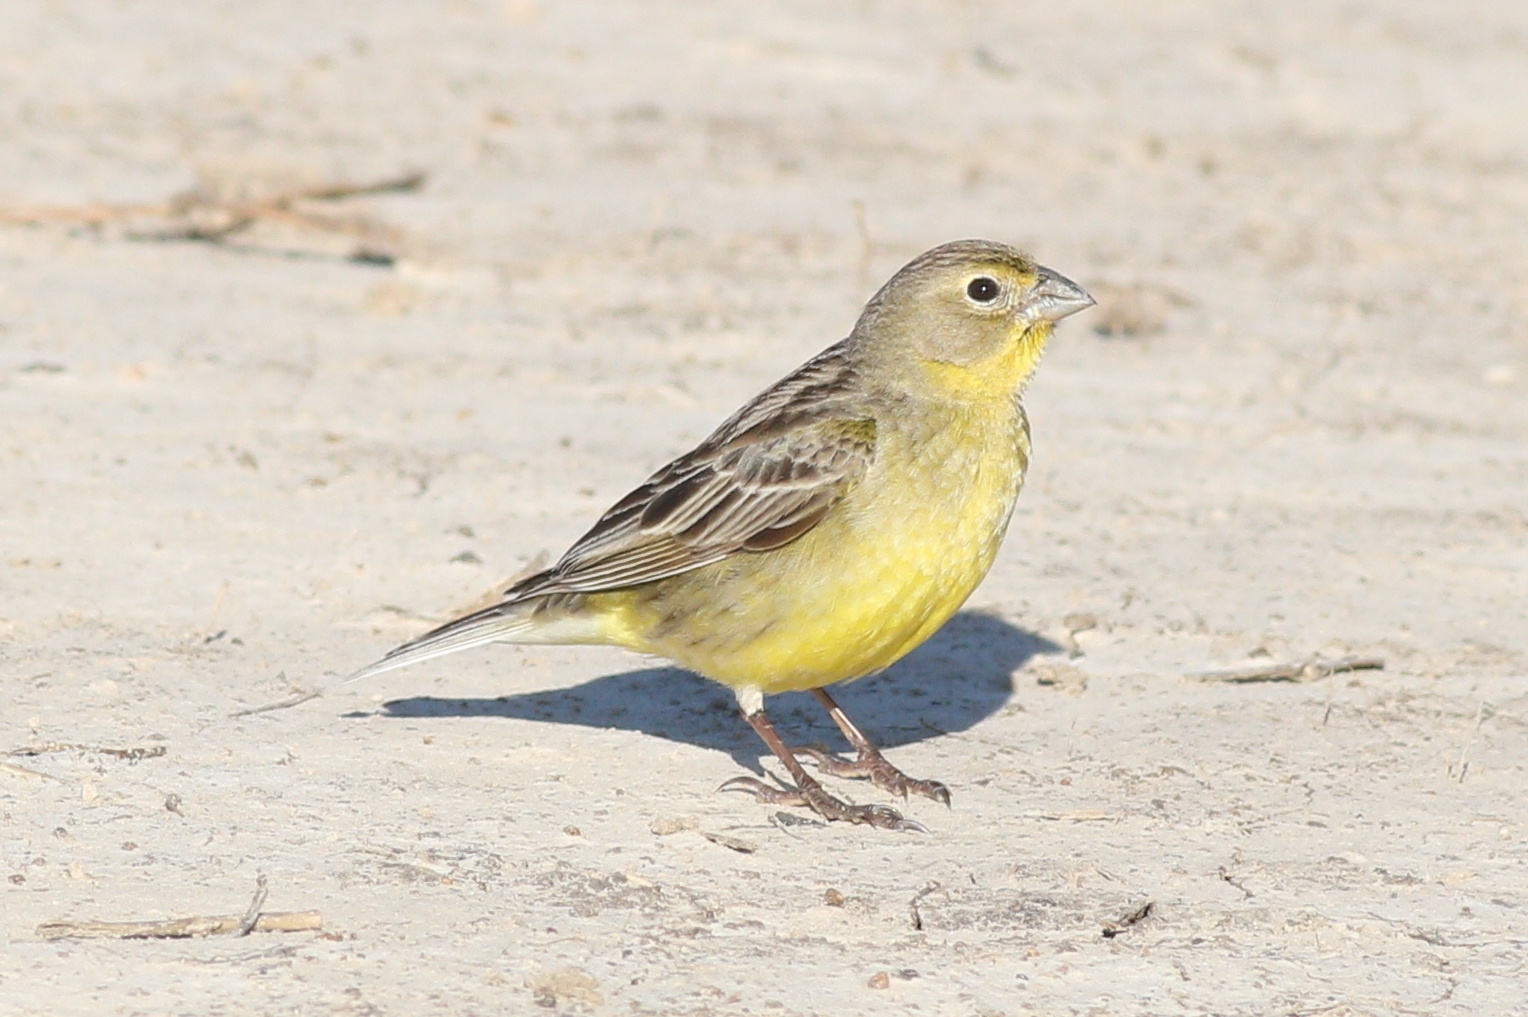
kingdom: Animalia
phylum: Chordata
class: Aves
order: Passeriformes
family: Thraupidae
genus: Sicalis
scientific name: Sicalis luteola
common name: Grassland yellow-finch
